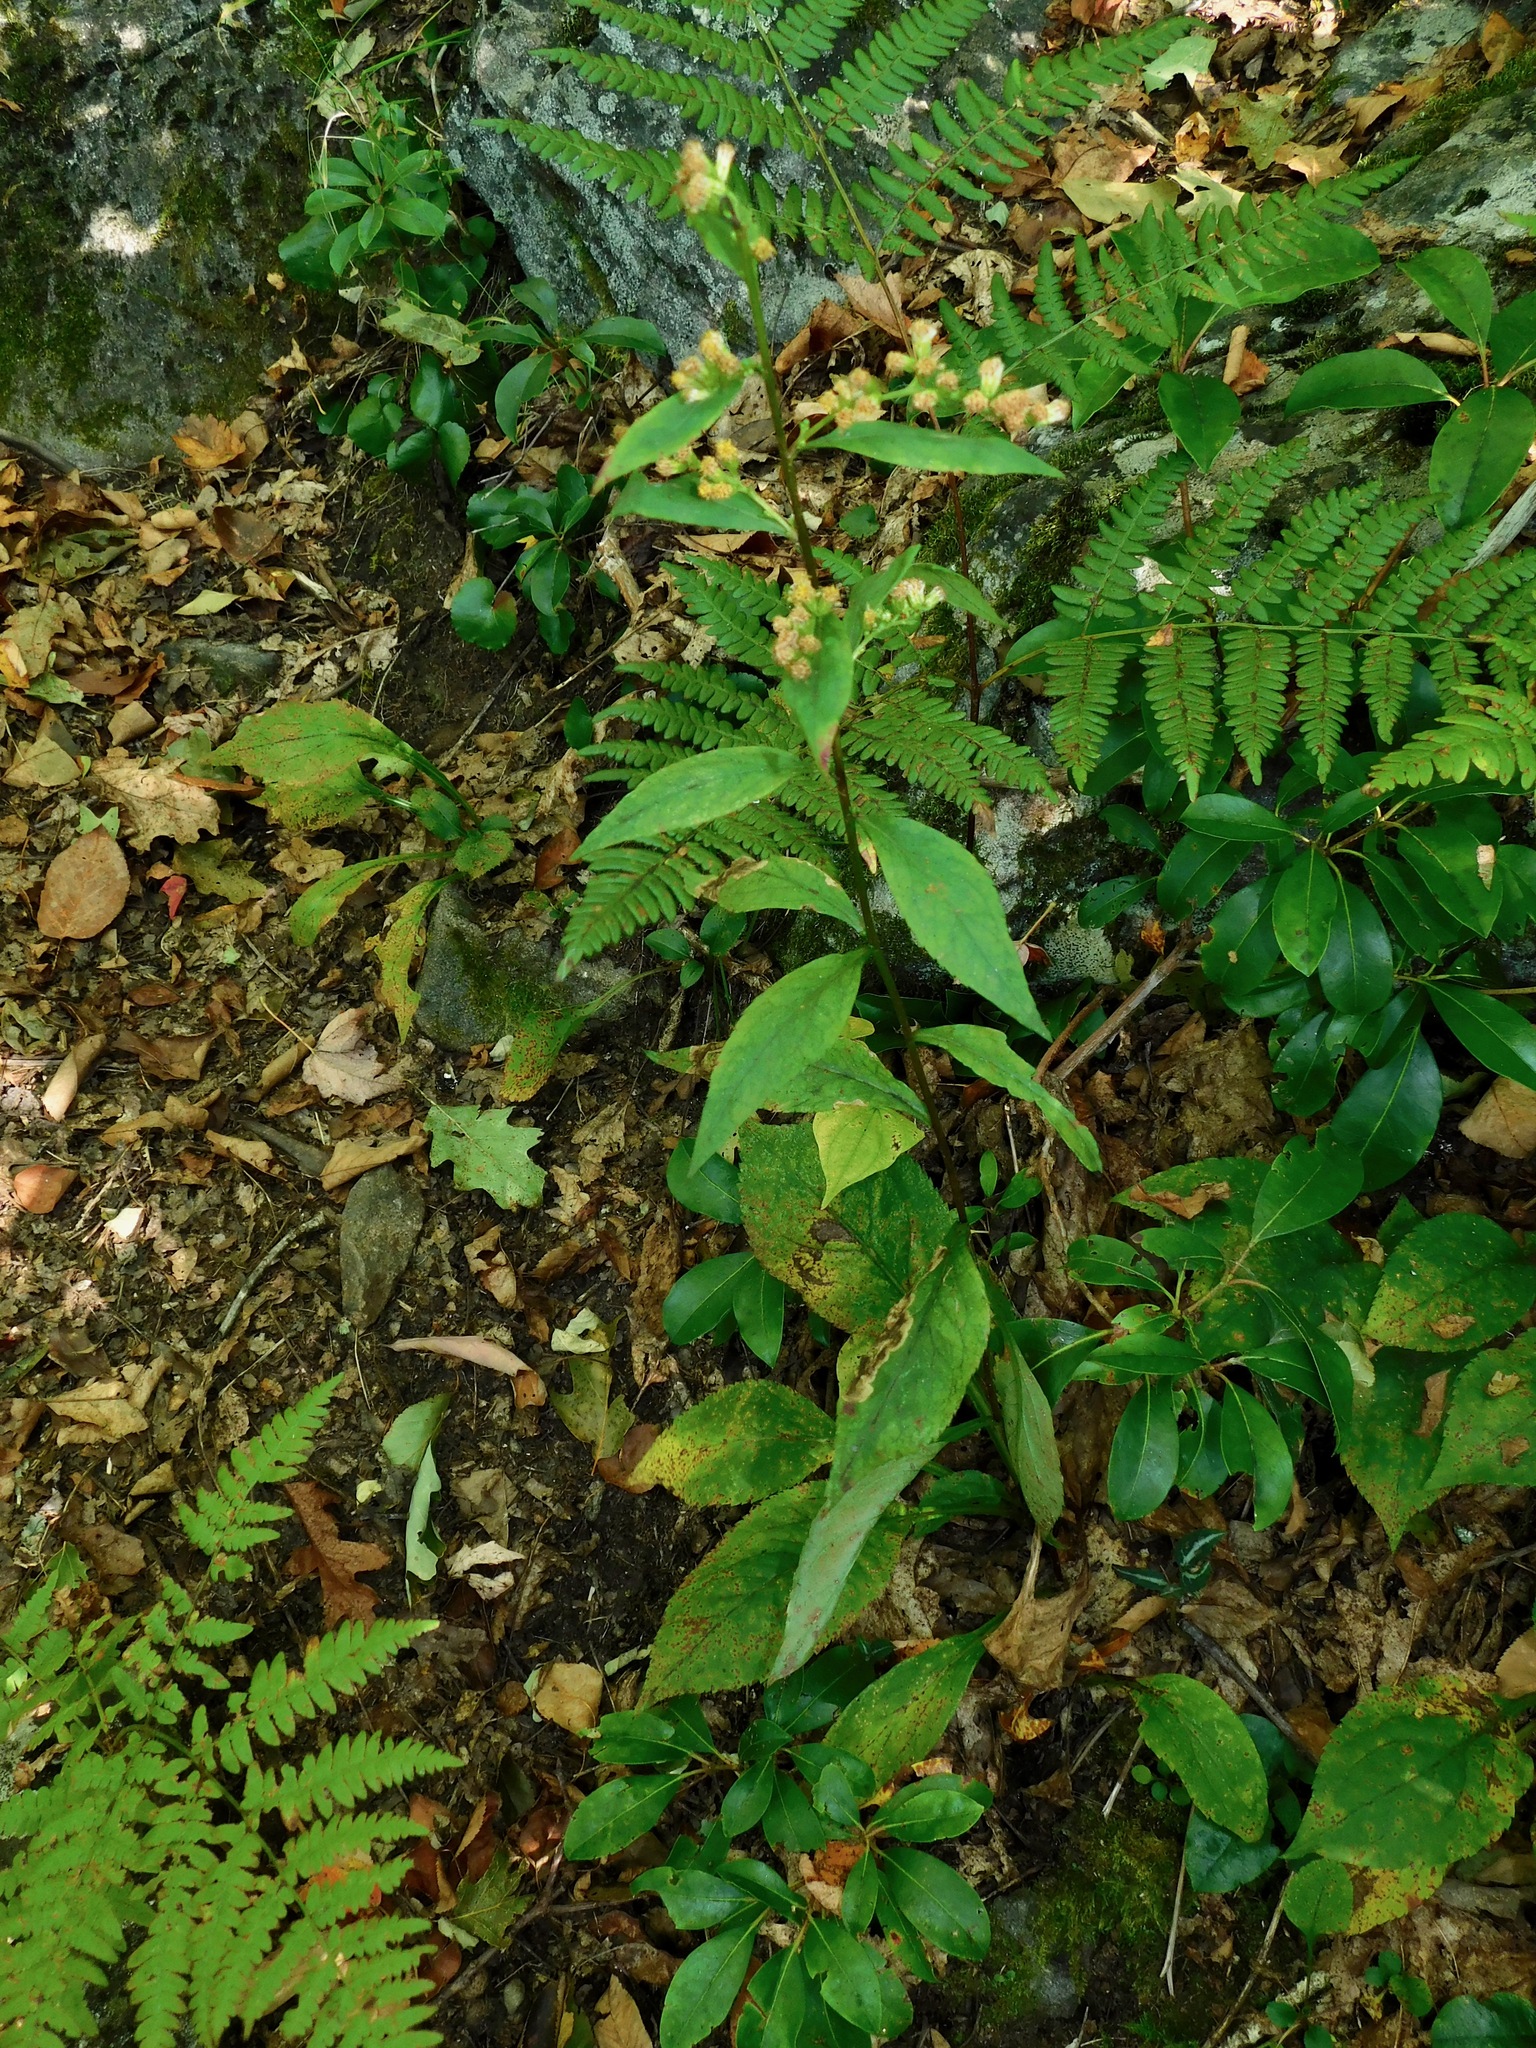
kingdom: Plantae
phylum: Tracheophyta
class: Magnoliopsida
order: Asterales
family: Asteraceae
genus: Solidago
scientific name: Solidago flexicaulis
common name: Zig-zag goldenrod
